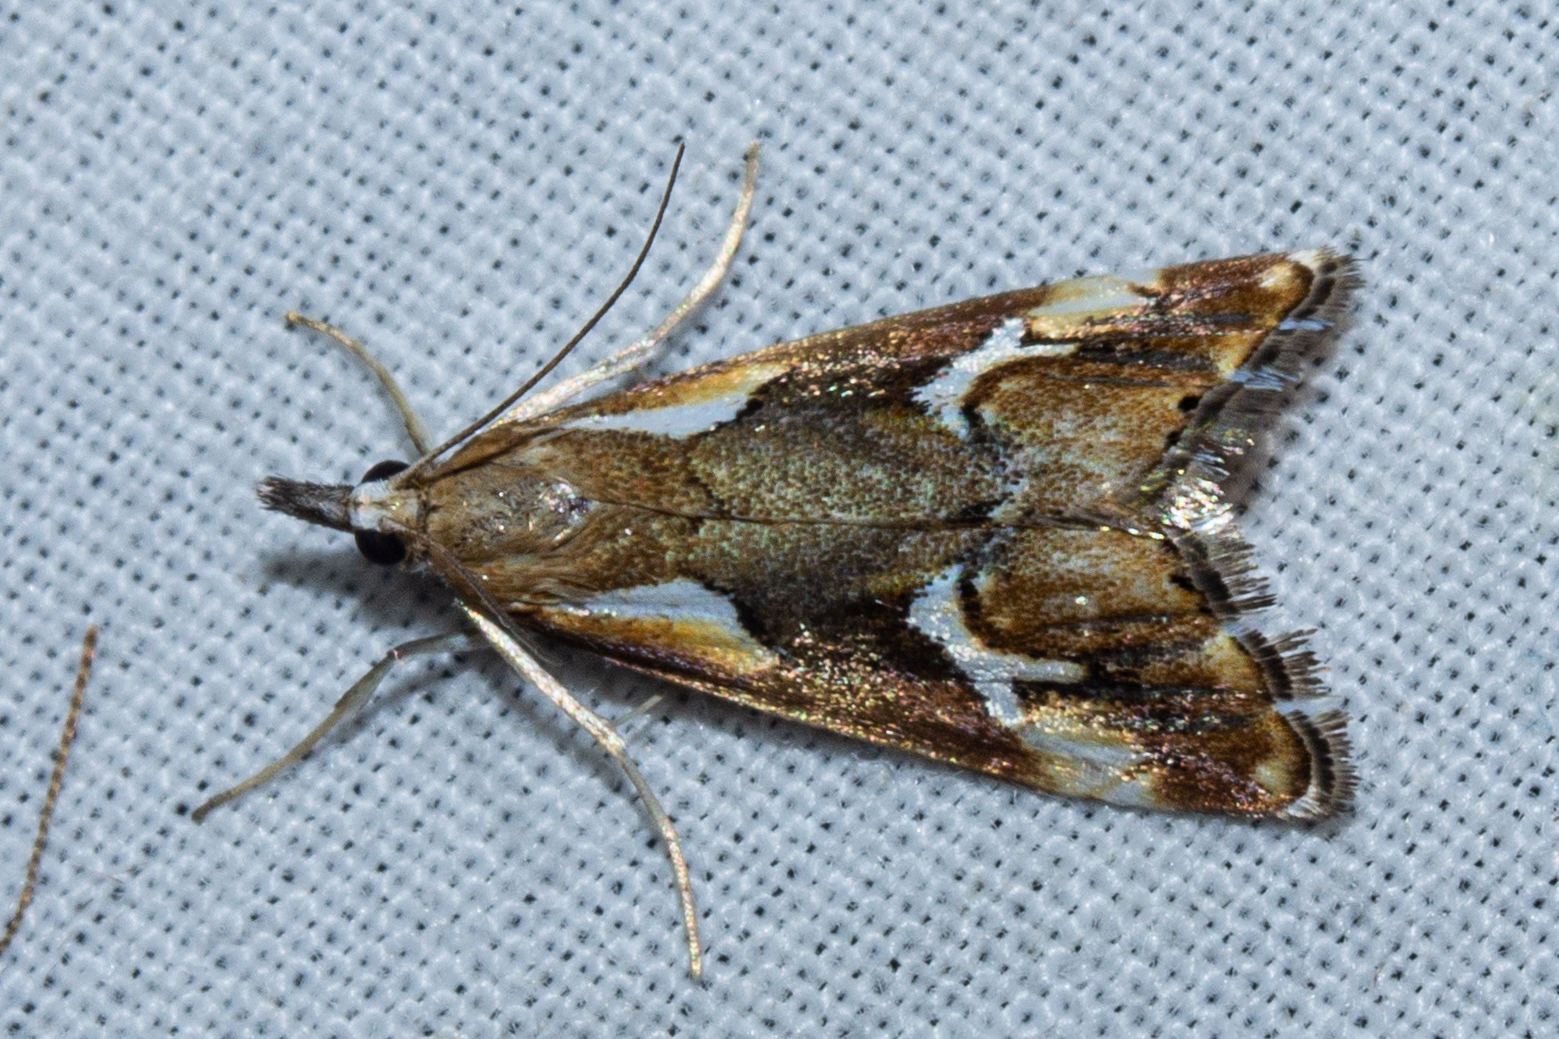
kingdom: Animalia
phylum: Arthropoda
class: Insecta
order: Lepidoptera
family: Crambidae
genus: Glaucocharis
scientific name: Glaucocharis interruptus
